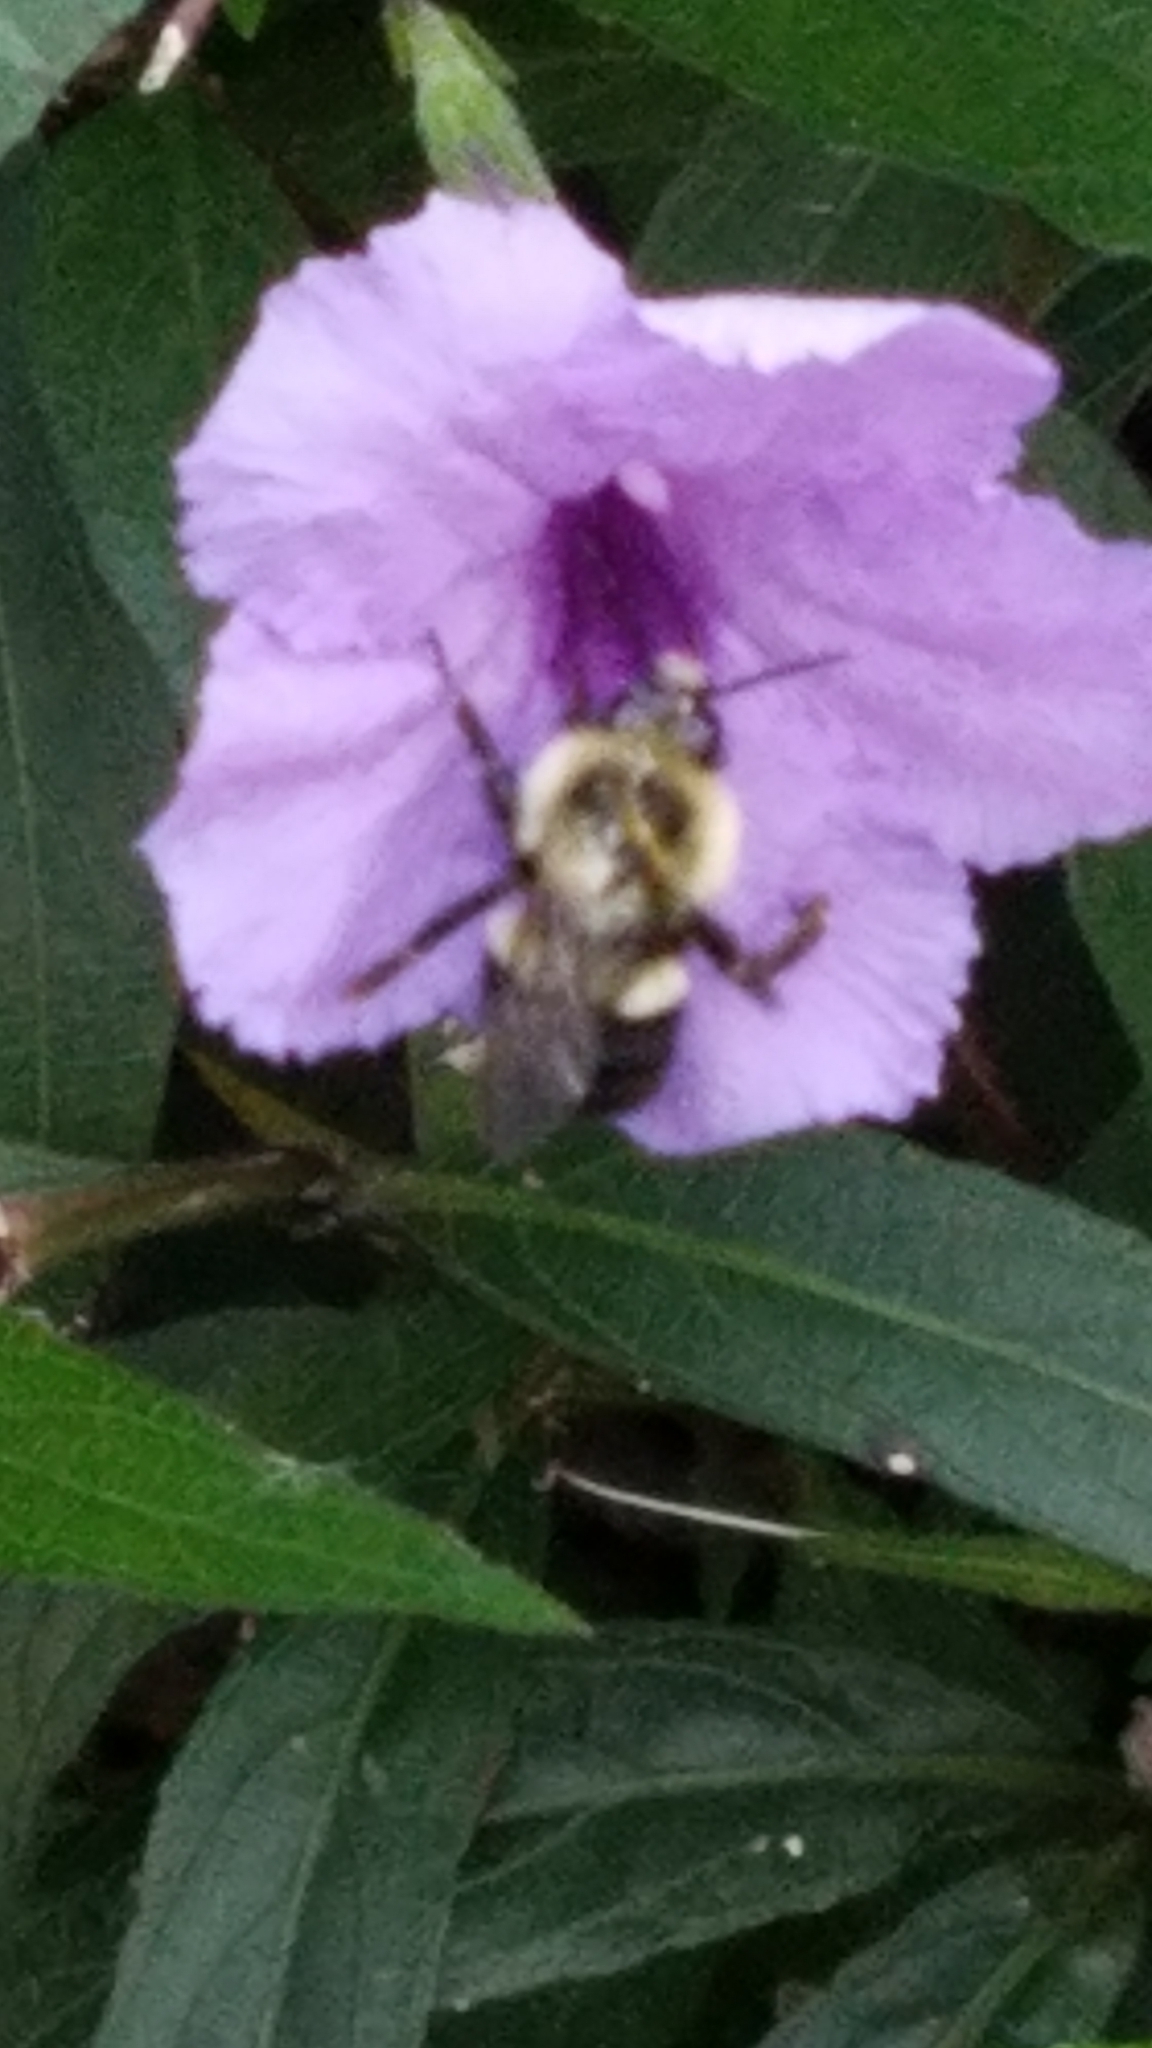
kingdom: Animalia
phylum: Arthropoda
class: Insecta
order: Hymenoptera
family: Apidae
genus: Bombus
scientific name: Bombus impatiens
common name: Common eastern bumble bee
